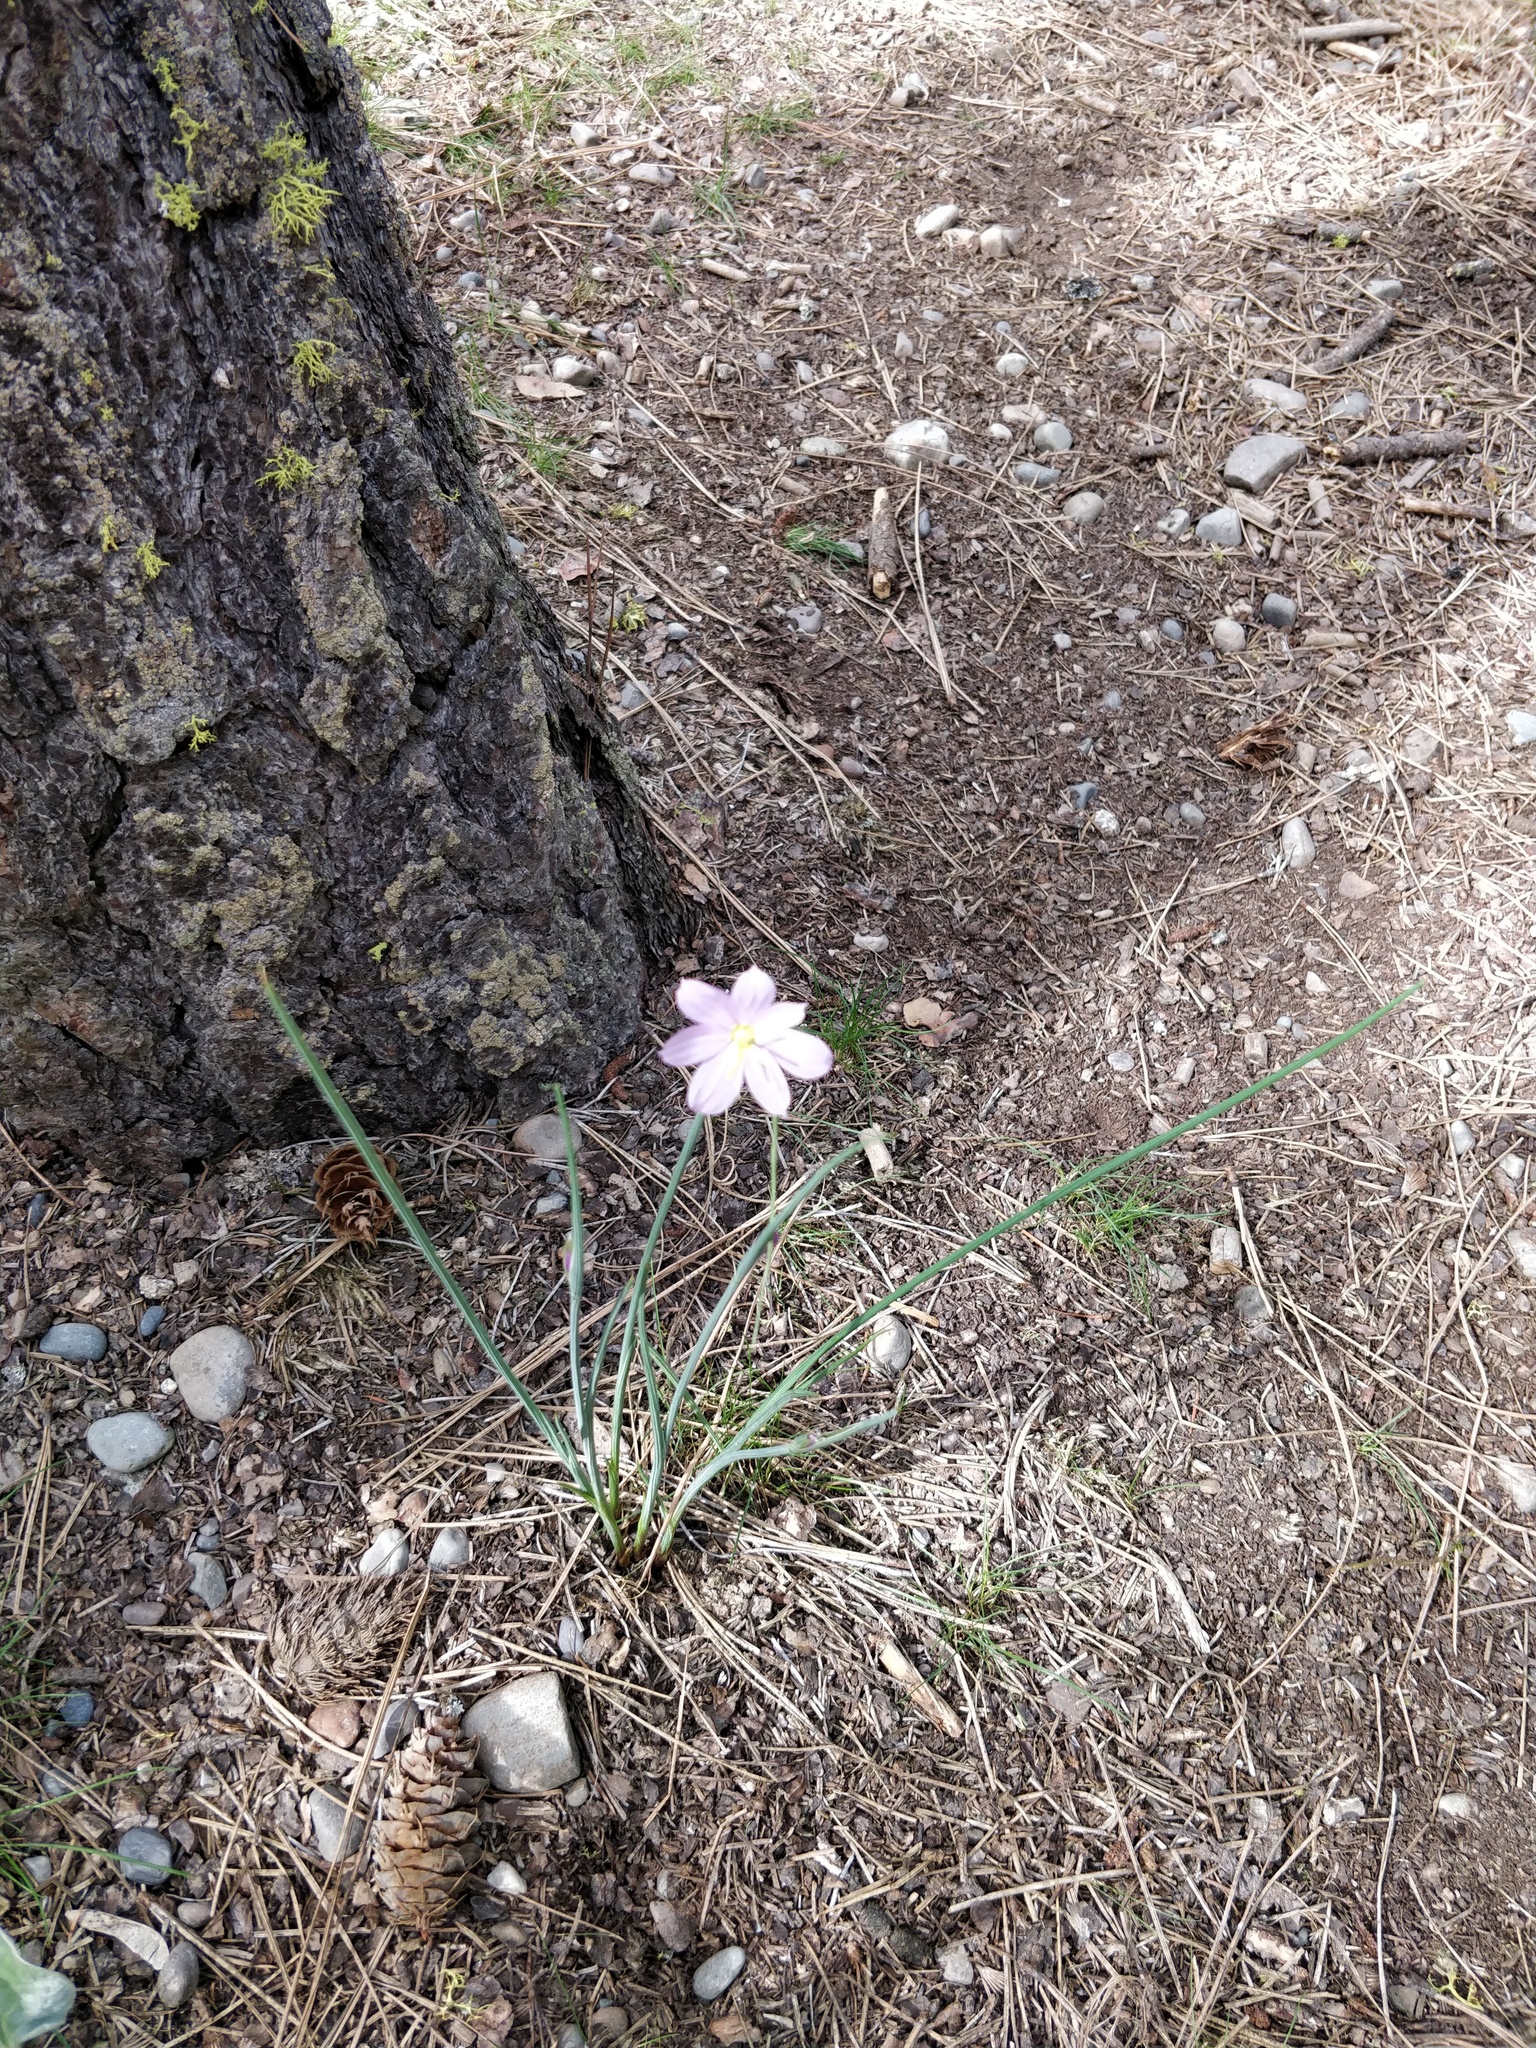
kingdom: Plantae
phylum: Tracheophyta
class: Liliopsida
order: Asparagales
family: Iridaceae
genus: Olsynium
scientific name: Olsynium douglasii
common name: Douglas' grasswidow
